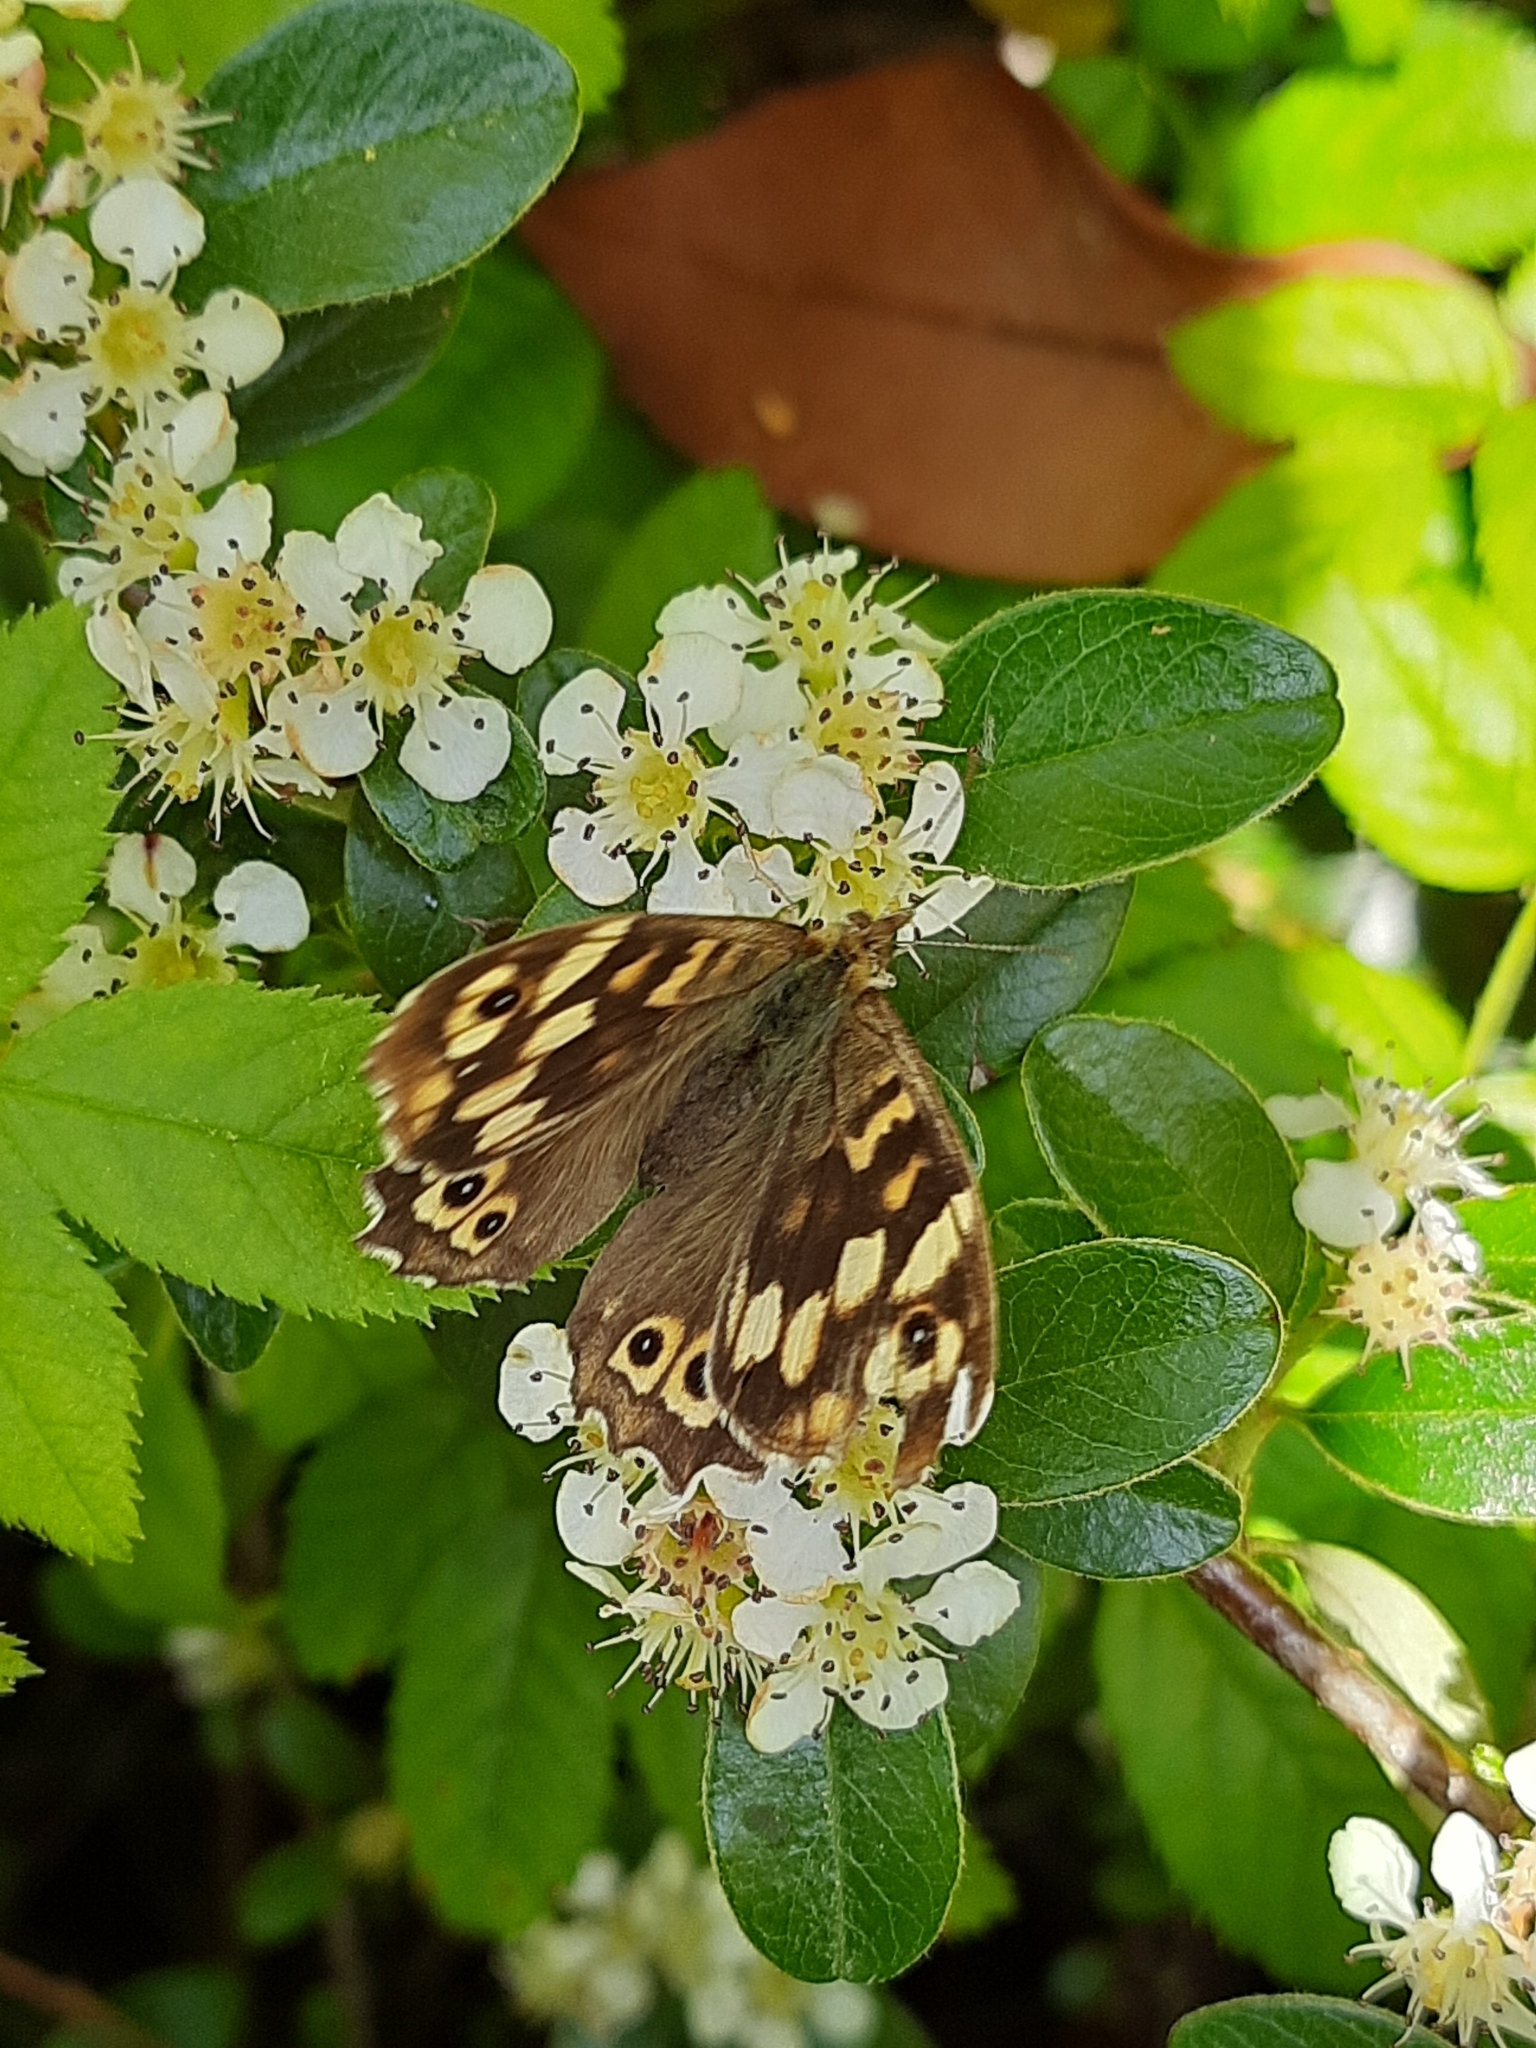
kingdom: Animalia
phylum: Arthropoda
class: Insecta
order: Lepidoptera
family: Nymphalidae
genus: Pararge
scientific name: Pararge aegeria
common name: Speckled wood
